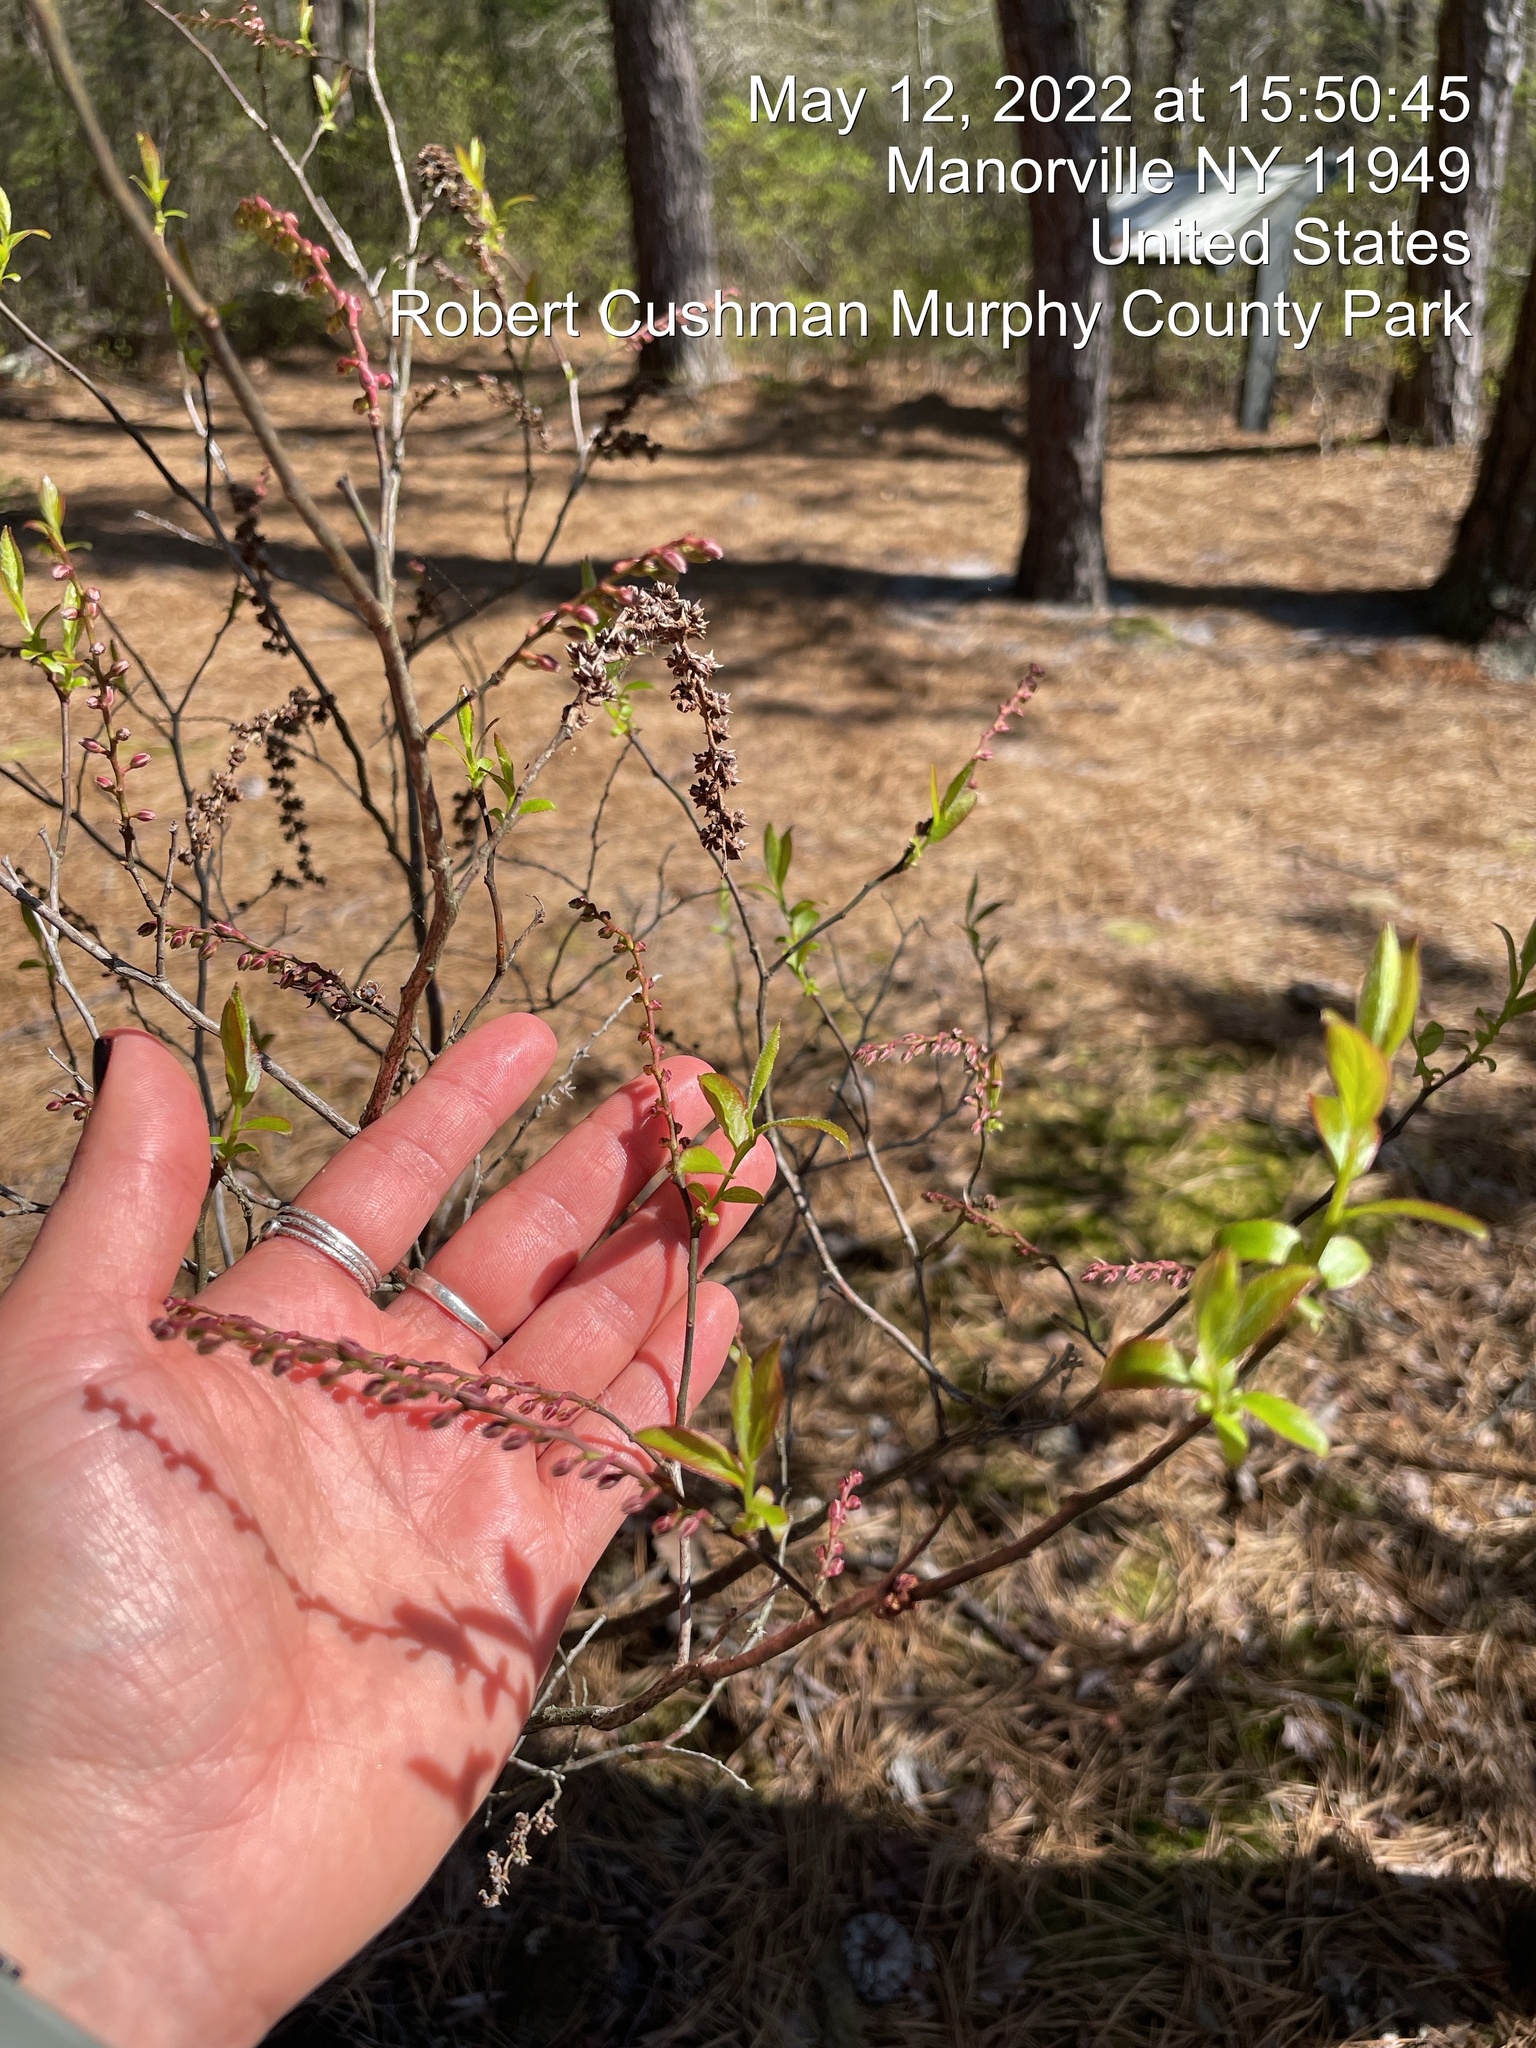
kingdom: Plantae
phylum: Tracheophyta
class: Magnoliopsida
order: Ericales
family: Ericaceae
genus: Eubotrys
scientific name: Eubotrys racemosa
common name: Fetterbush
